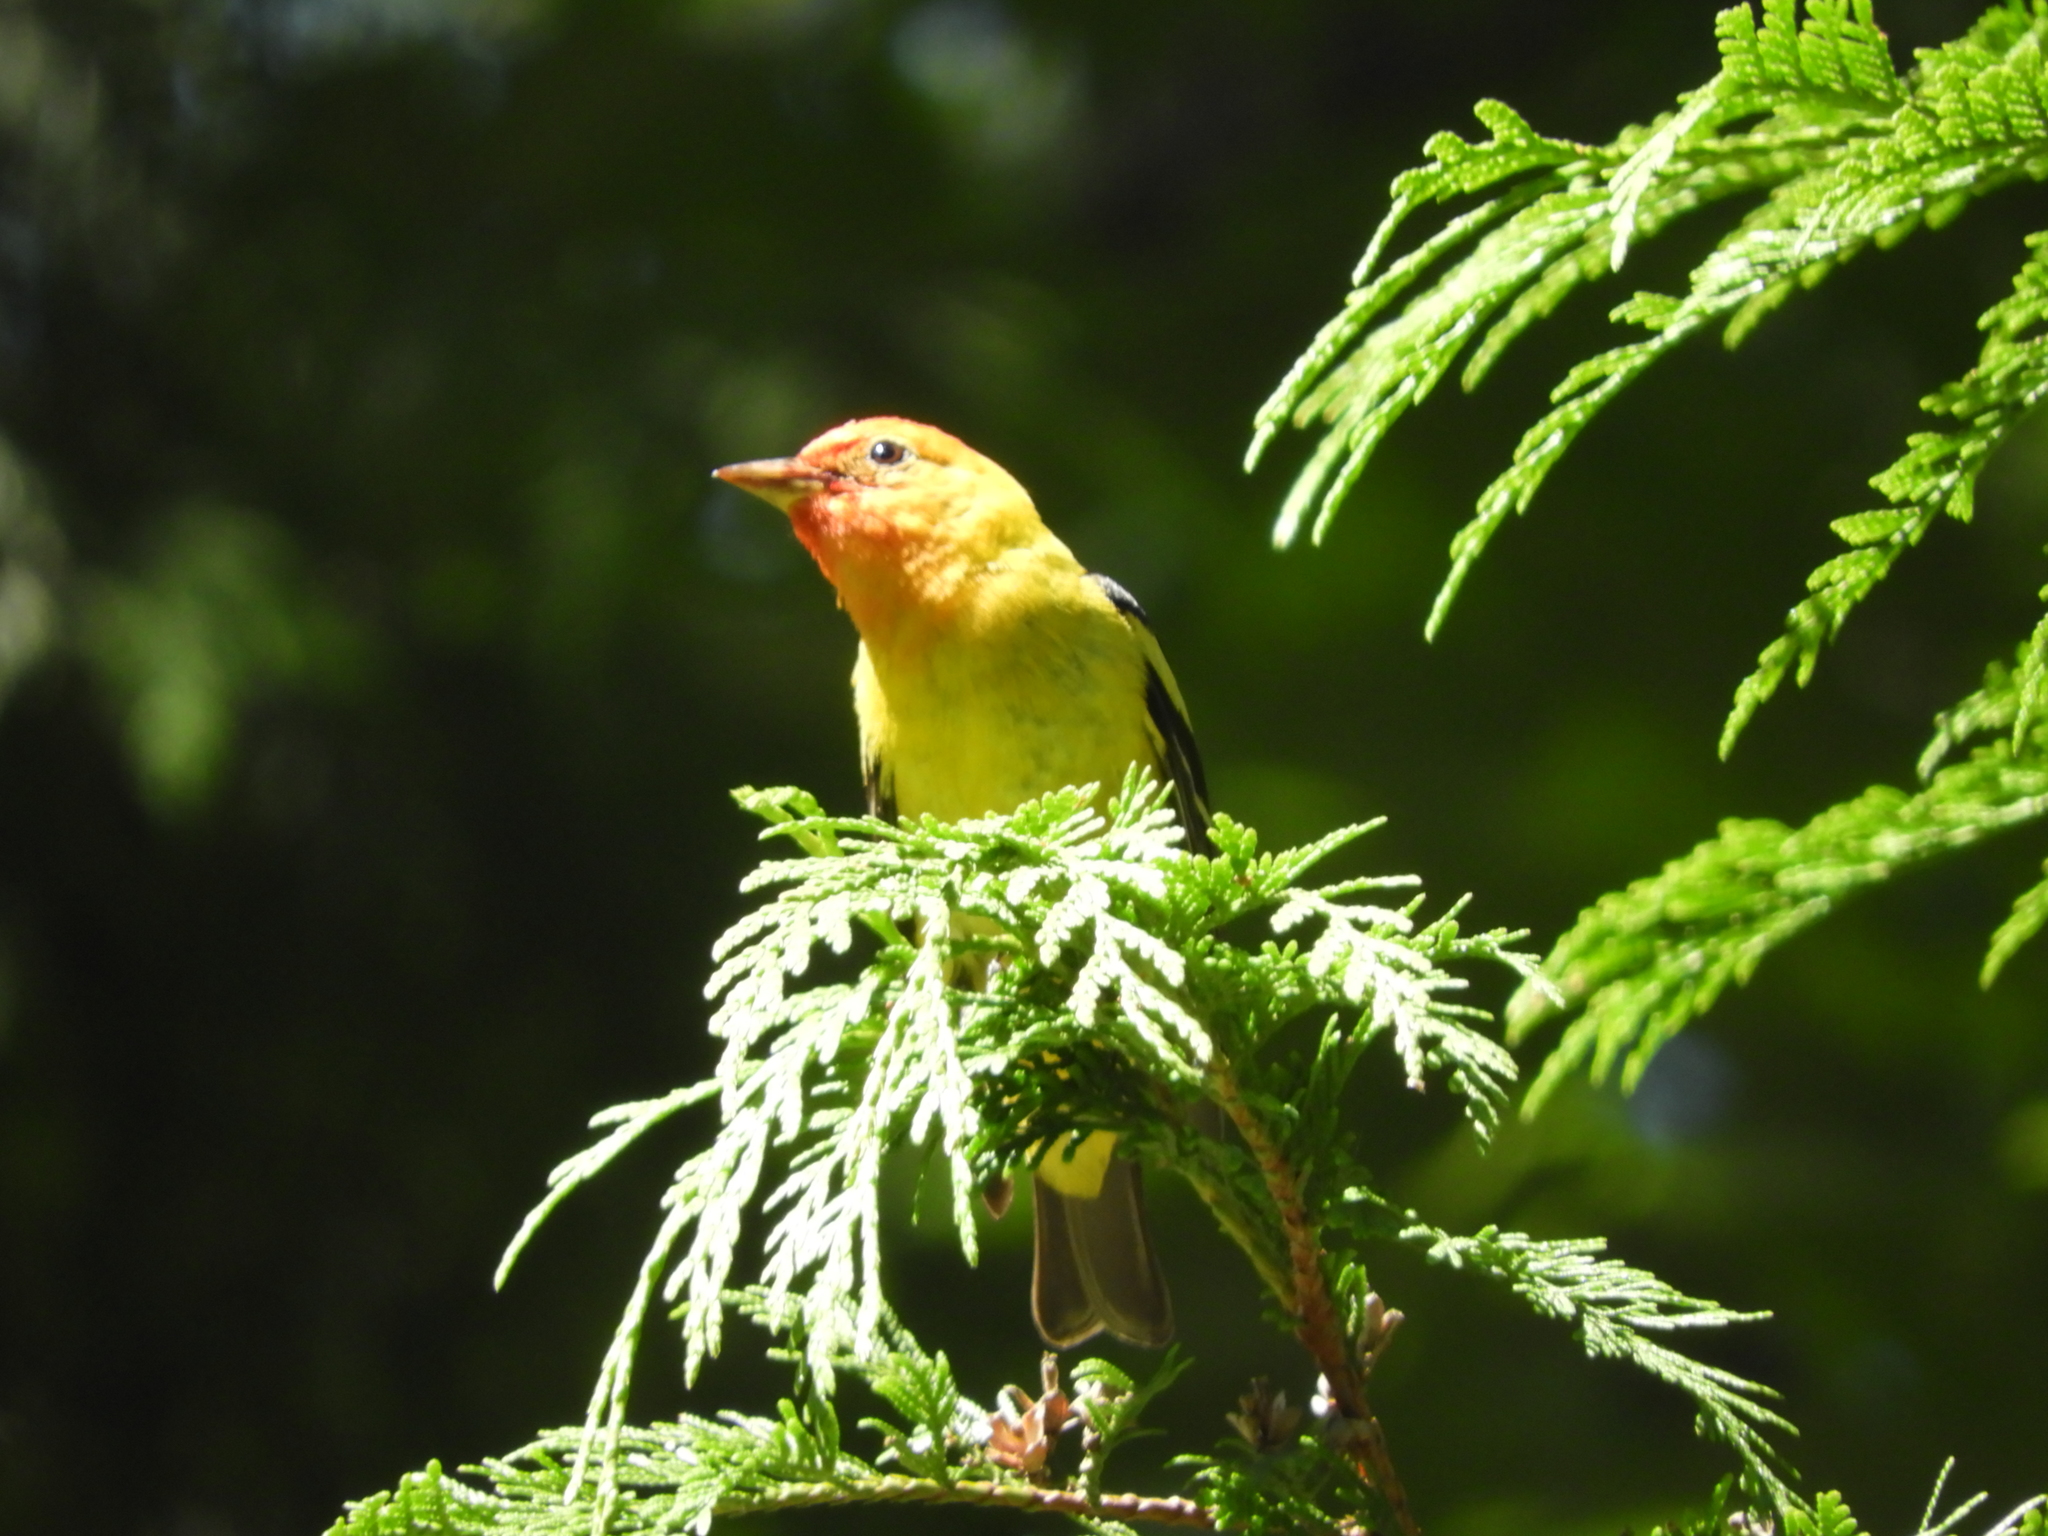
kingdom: Animalia
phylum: Chordata
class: Aves
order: Passeriformes
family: Cardinalidae
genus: Piranga
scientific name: Piranga ludoviciana
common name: Western tanager
